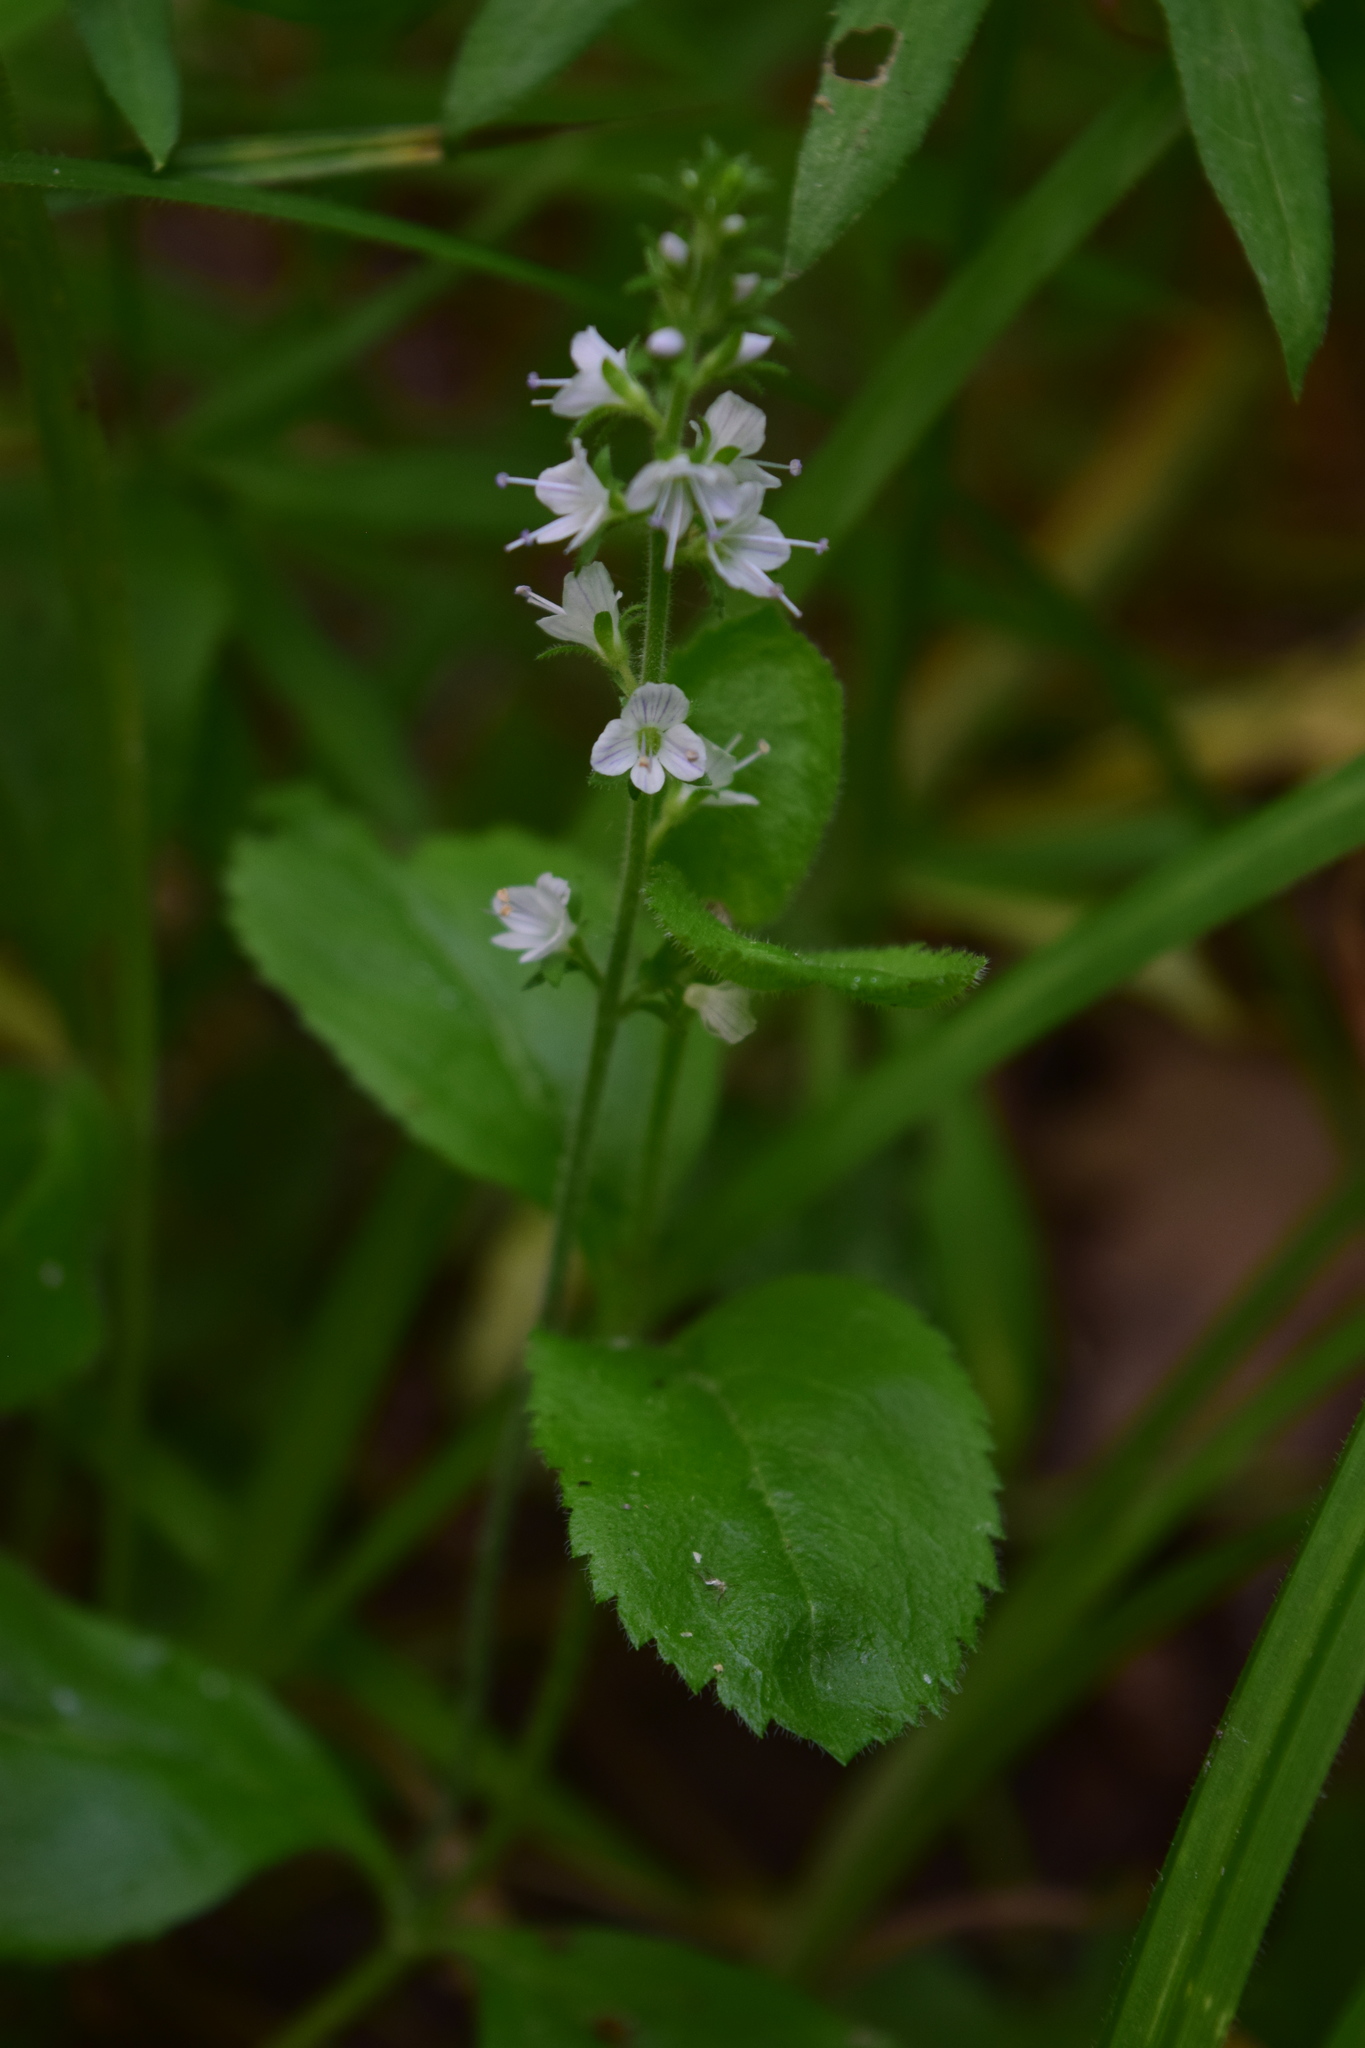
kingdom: Plantae
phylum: Tracheophyta
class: Magnoliopsida
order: Lamiales
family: Plantaginaceae
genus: Veronica
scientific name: Veronica officinalis
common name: Common speedwell
